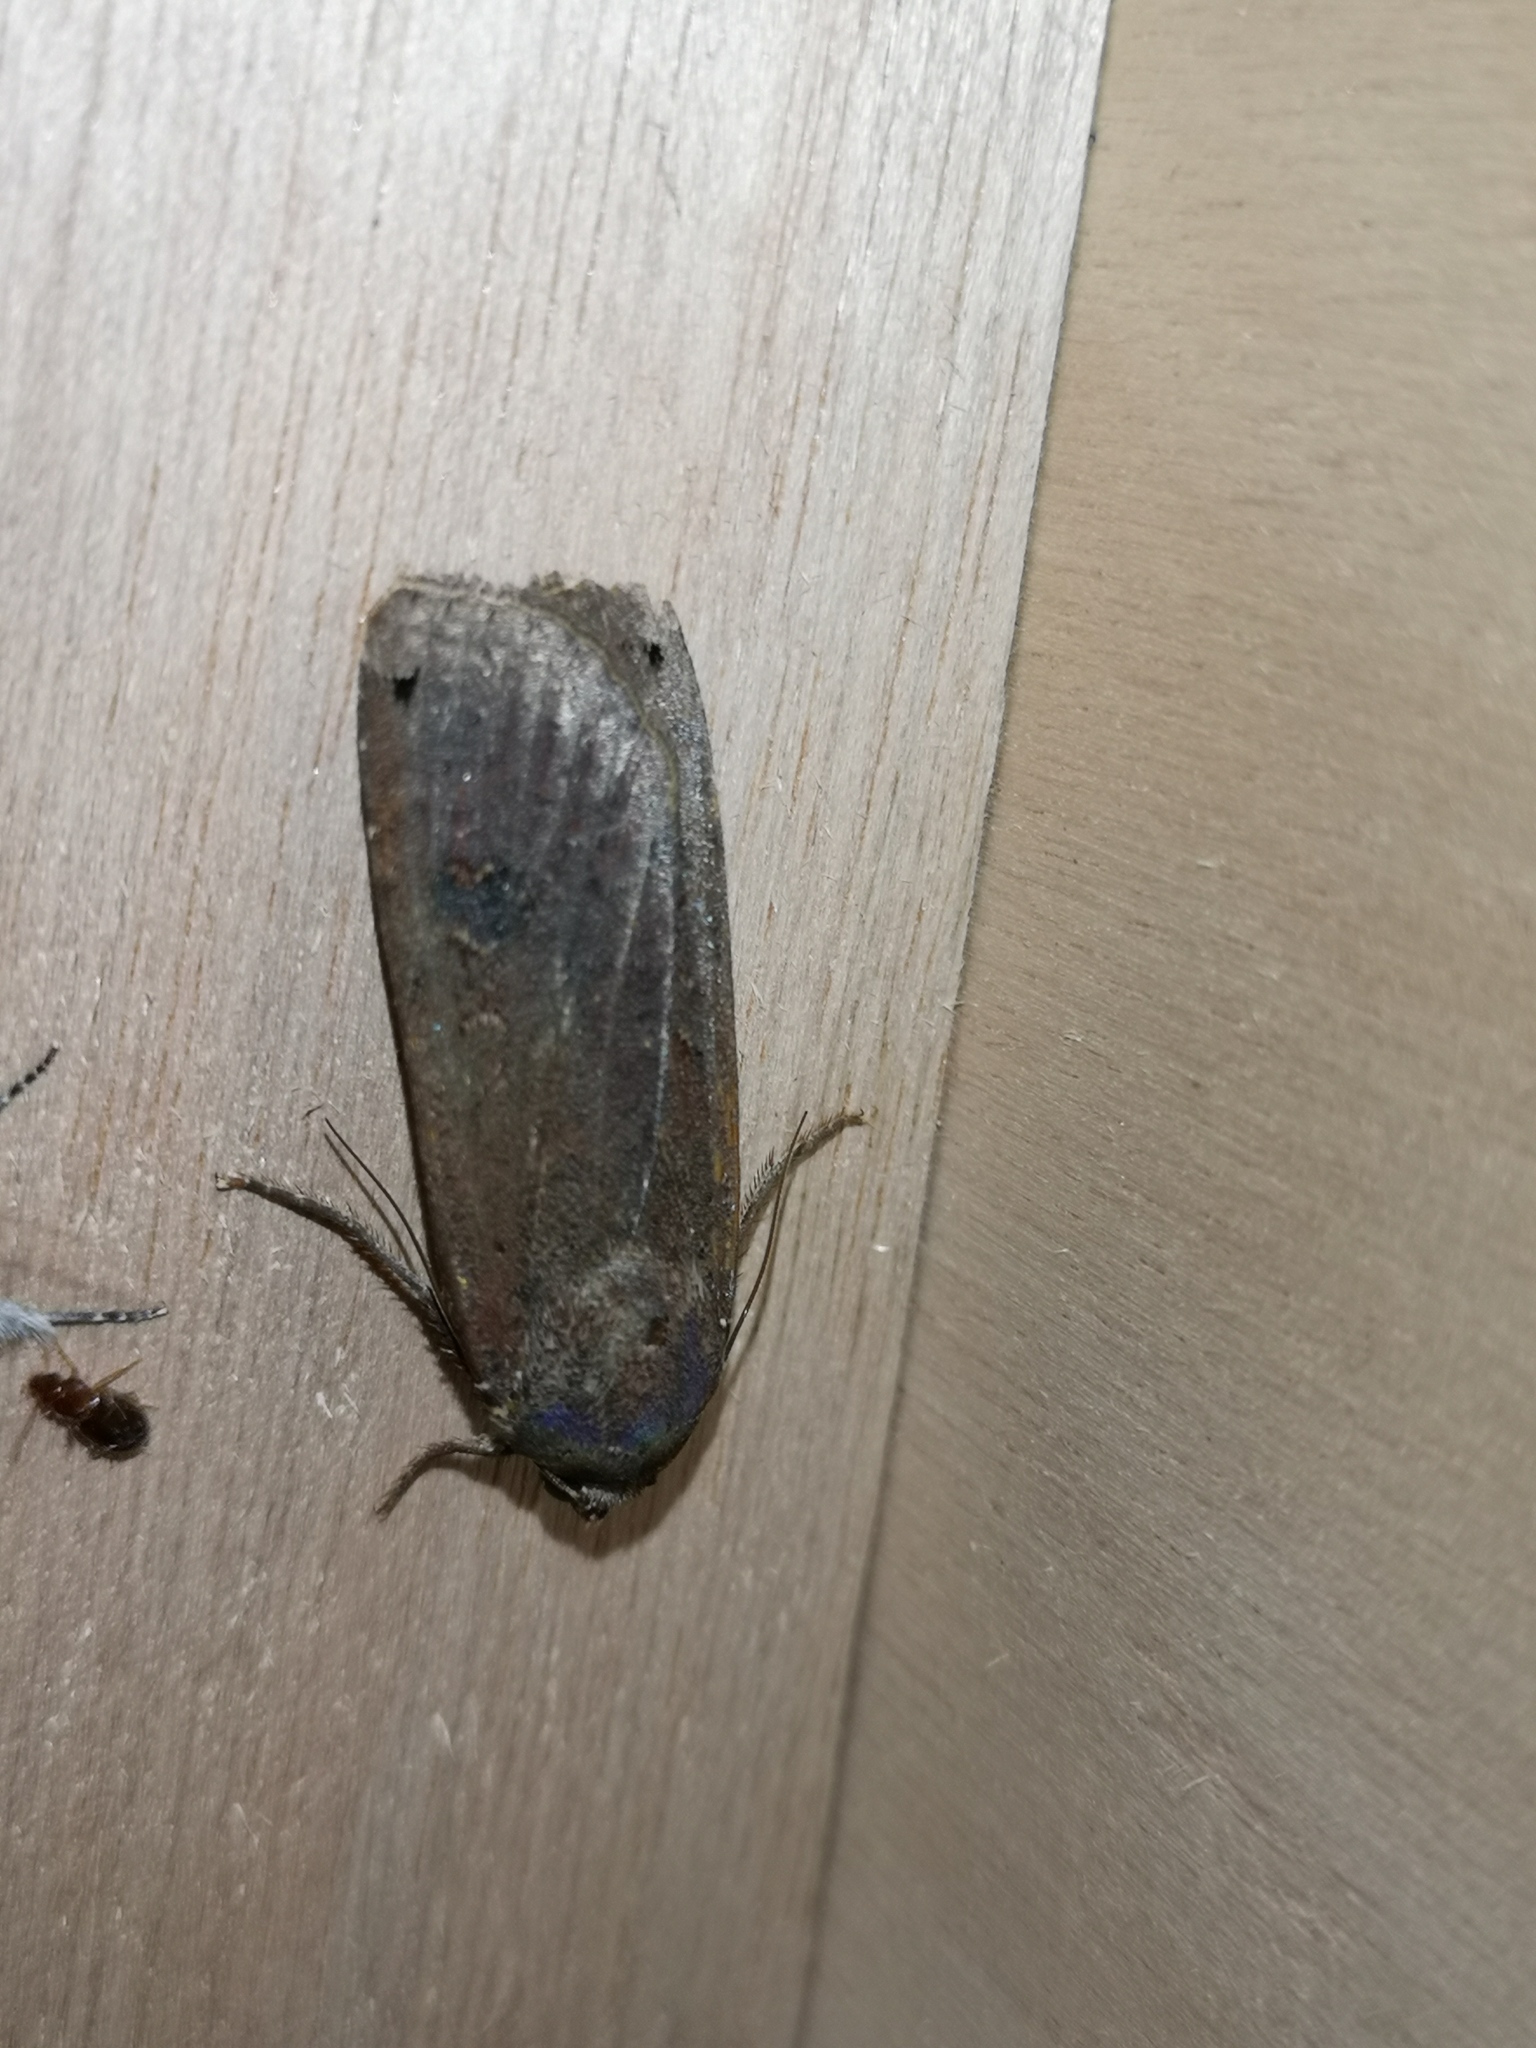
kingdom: Animalia
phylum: Arthropoda
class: Insecta
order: Lepidoptera
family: Noctuidae
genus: Noctua
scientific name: Noctua pronuba
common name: Large yellow underwing
